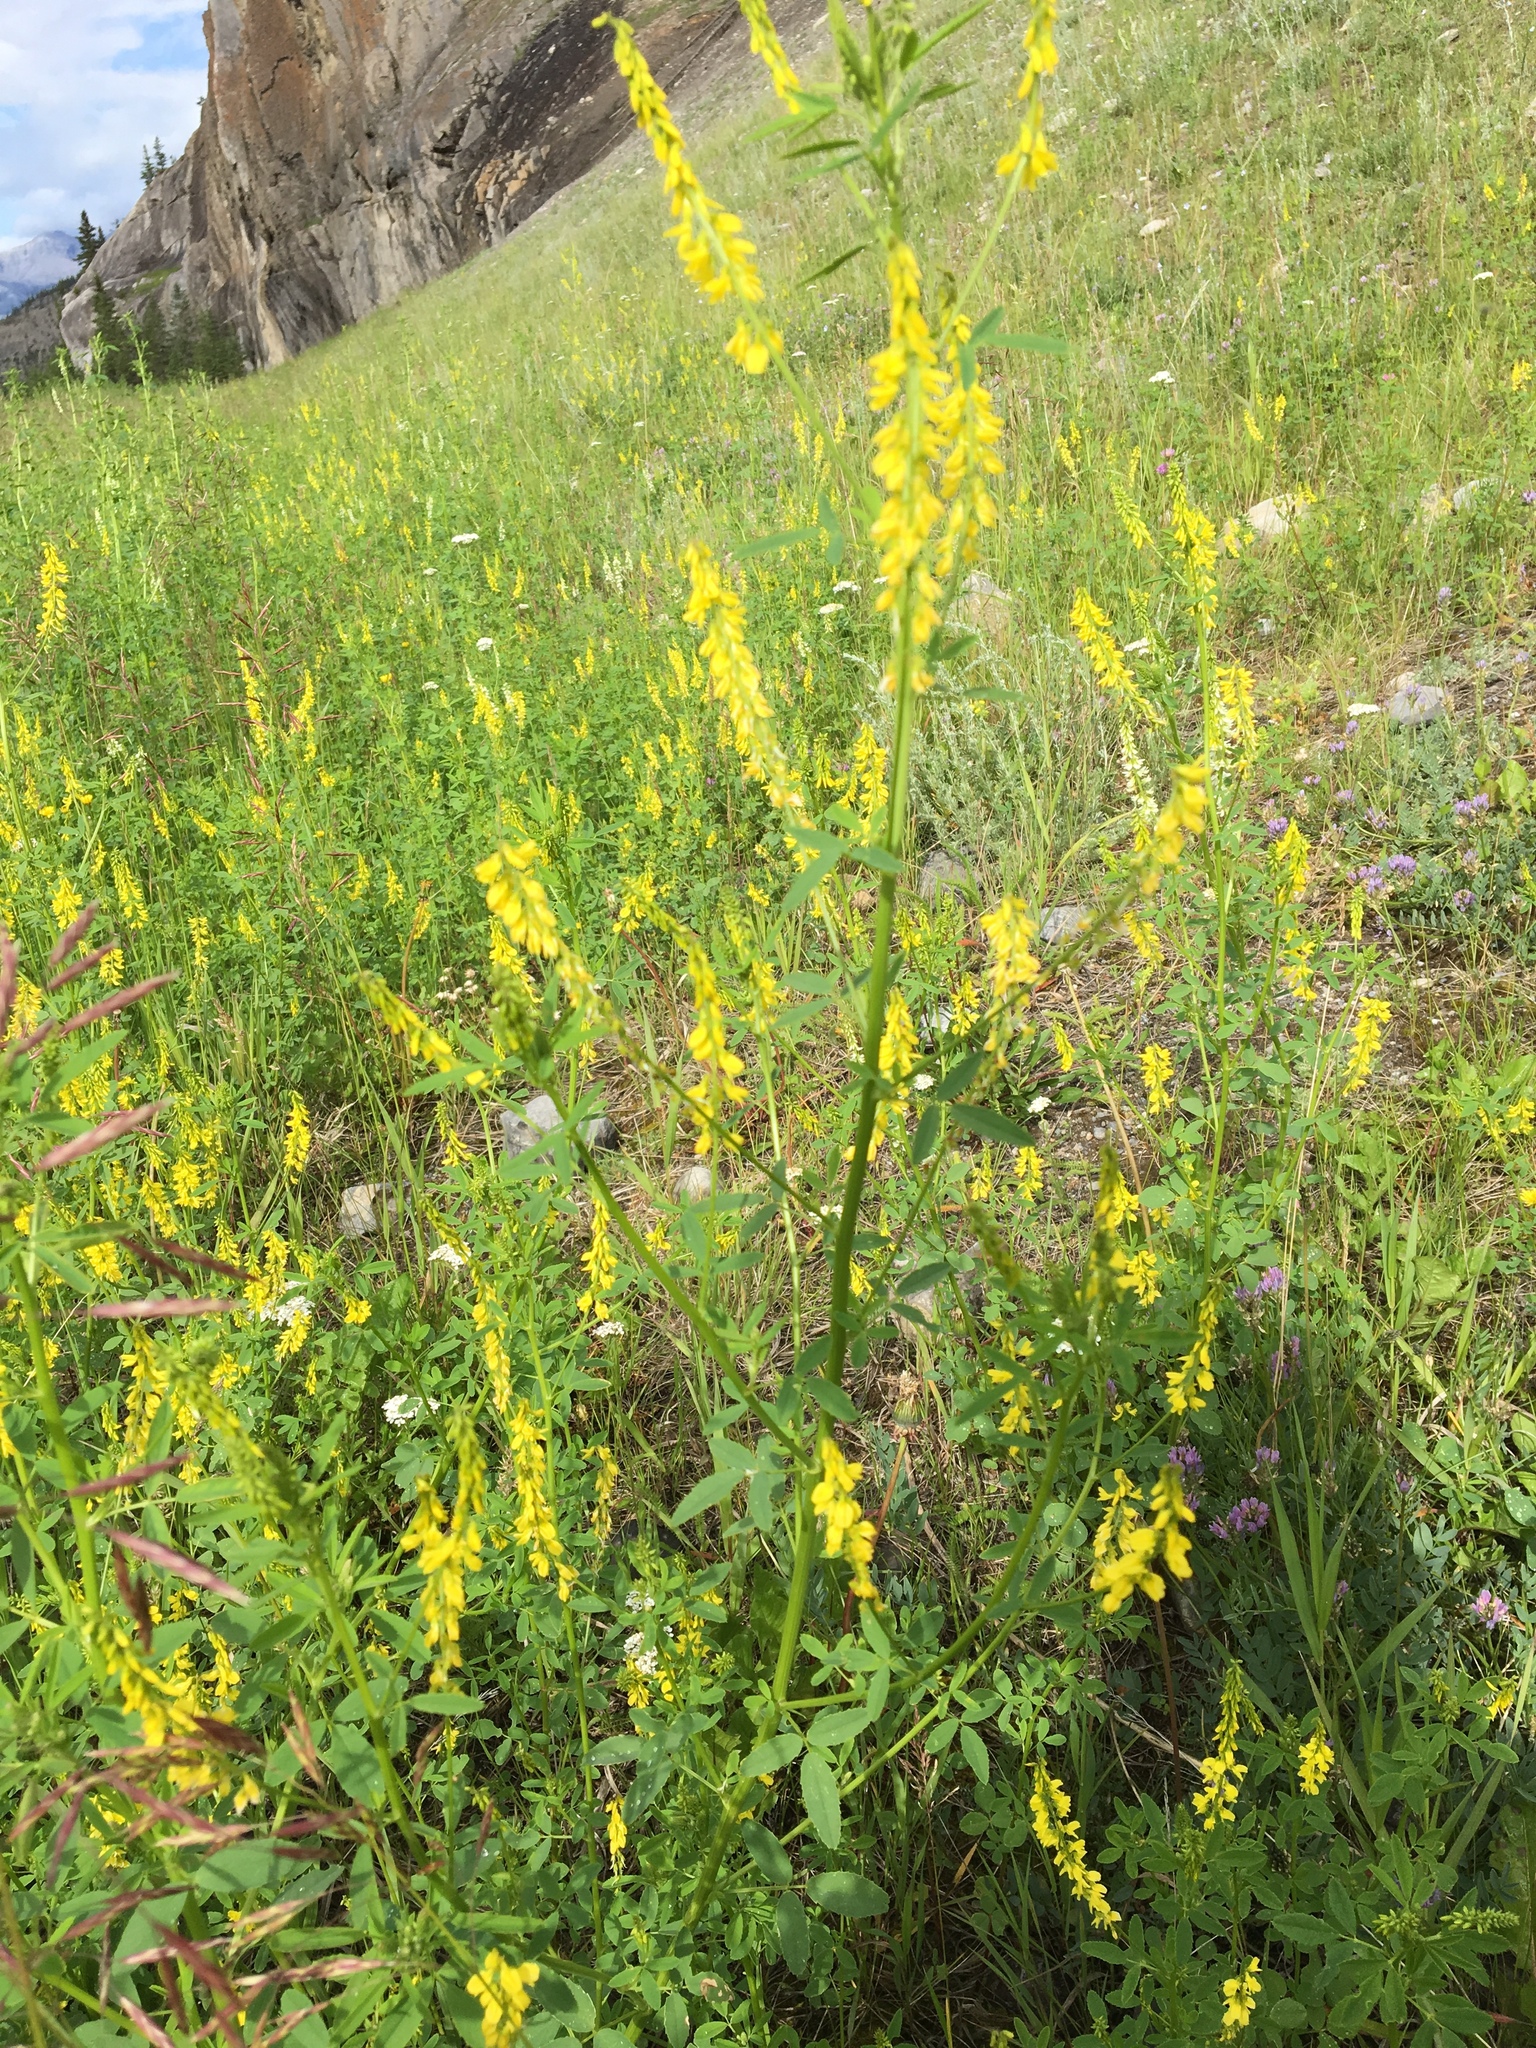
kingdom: Plantae
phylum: Tracheophyta
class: Magnoliopsida
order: Fabales
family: Fabaceae
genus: Melilotus
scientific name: Melilotus officinalis
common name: Sweetclover
